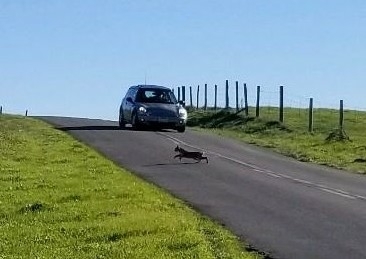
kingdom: Animalia
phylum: Chordata
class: Mammalia
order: Carnivora
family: Felidae
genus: Lynx
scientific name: Lynx rufus
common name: Bobcat
